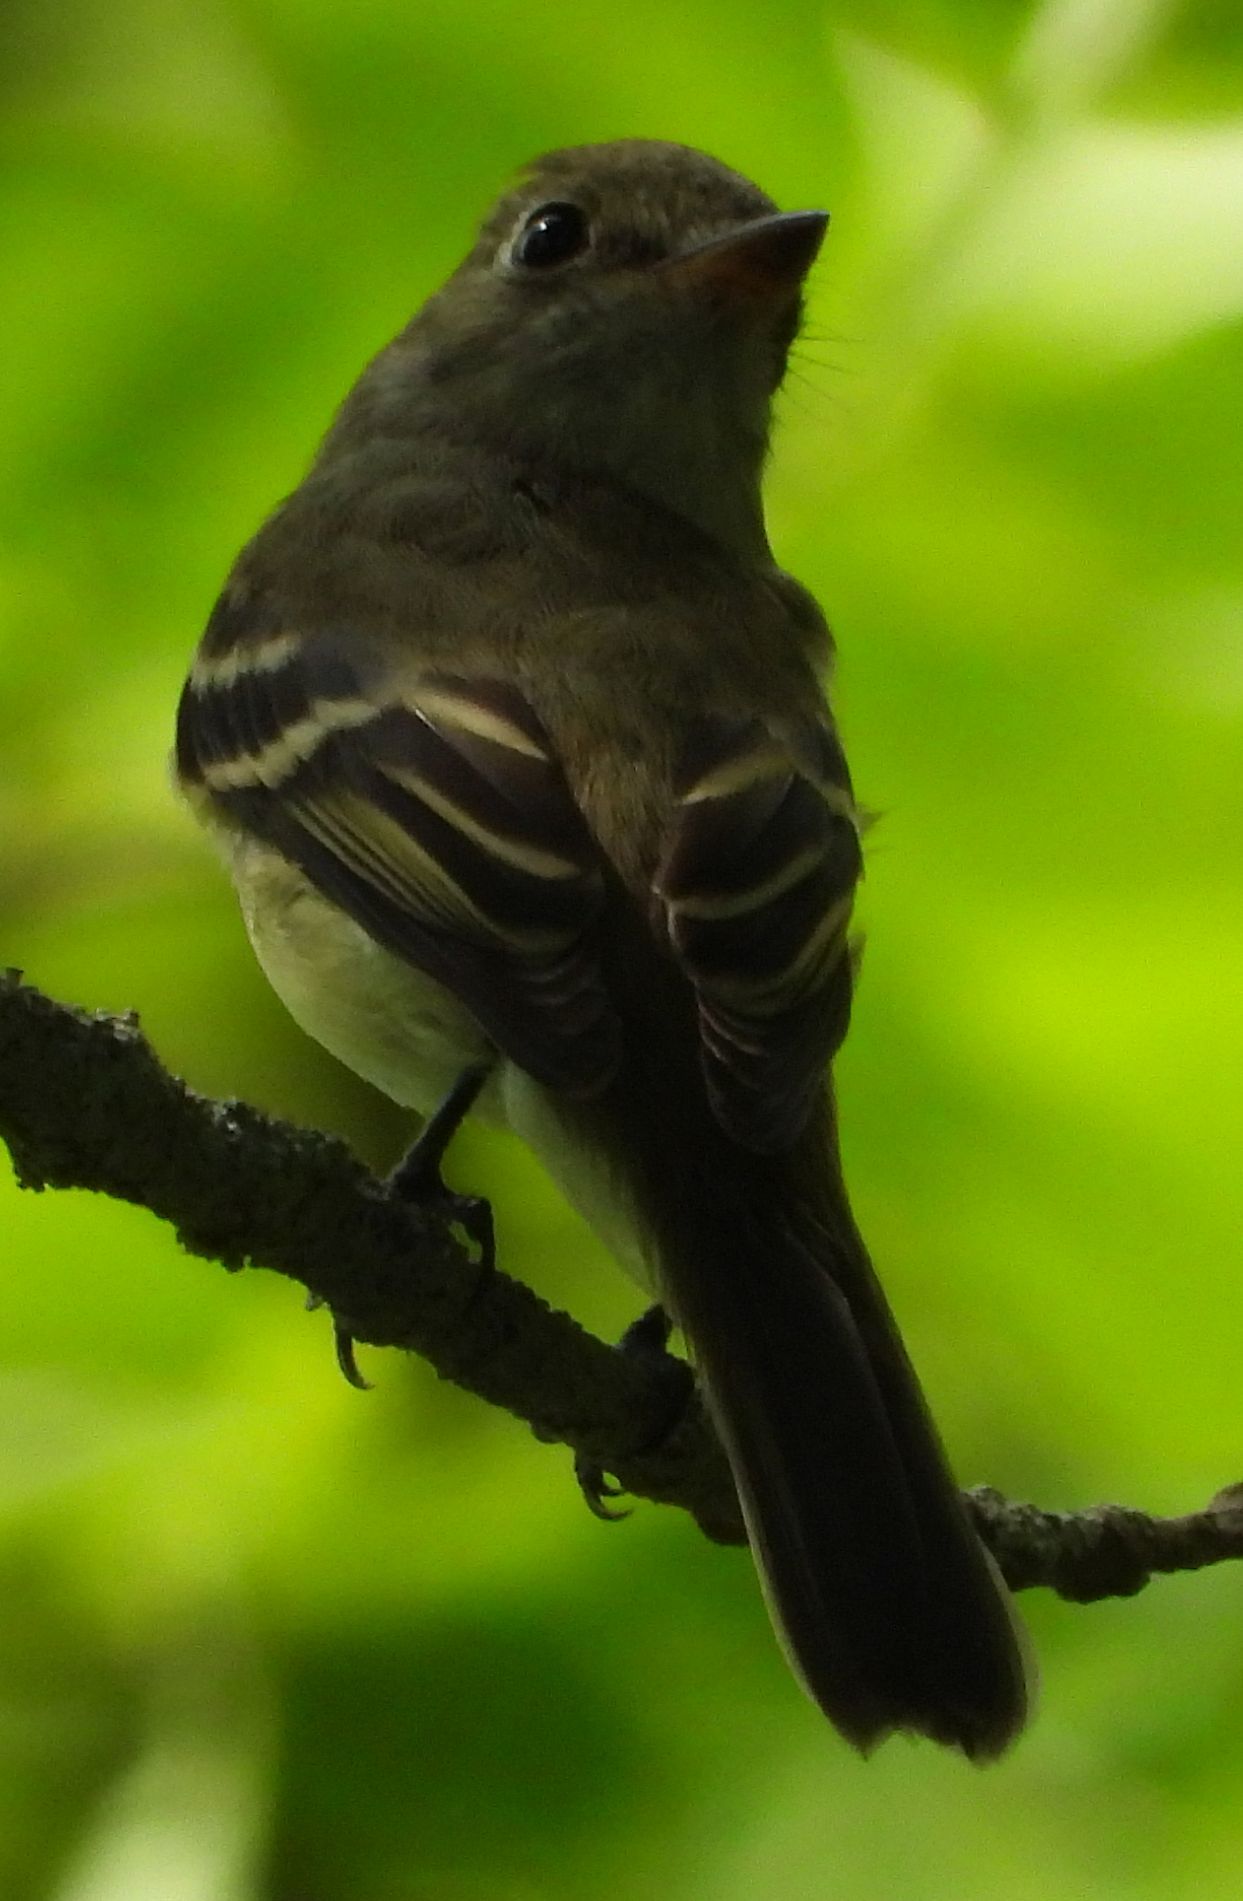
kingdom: Animalia
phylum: Chordata
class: Aves
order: Passeriformes
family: Tyrannidae
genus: Empidonax
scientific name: Empidonax
